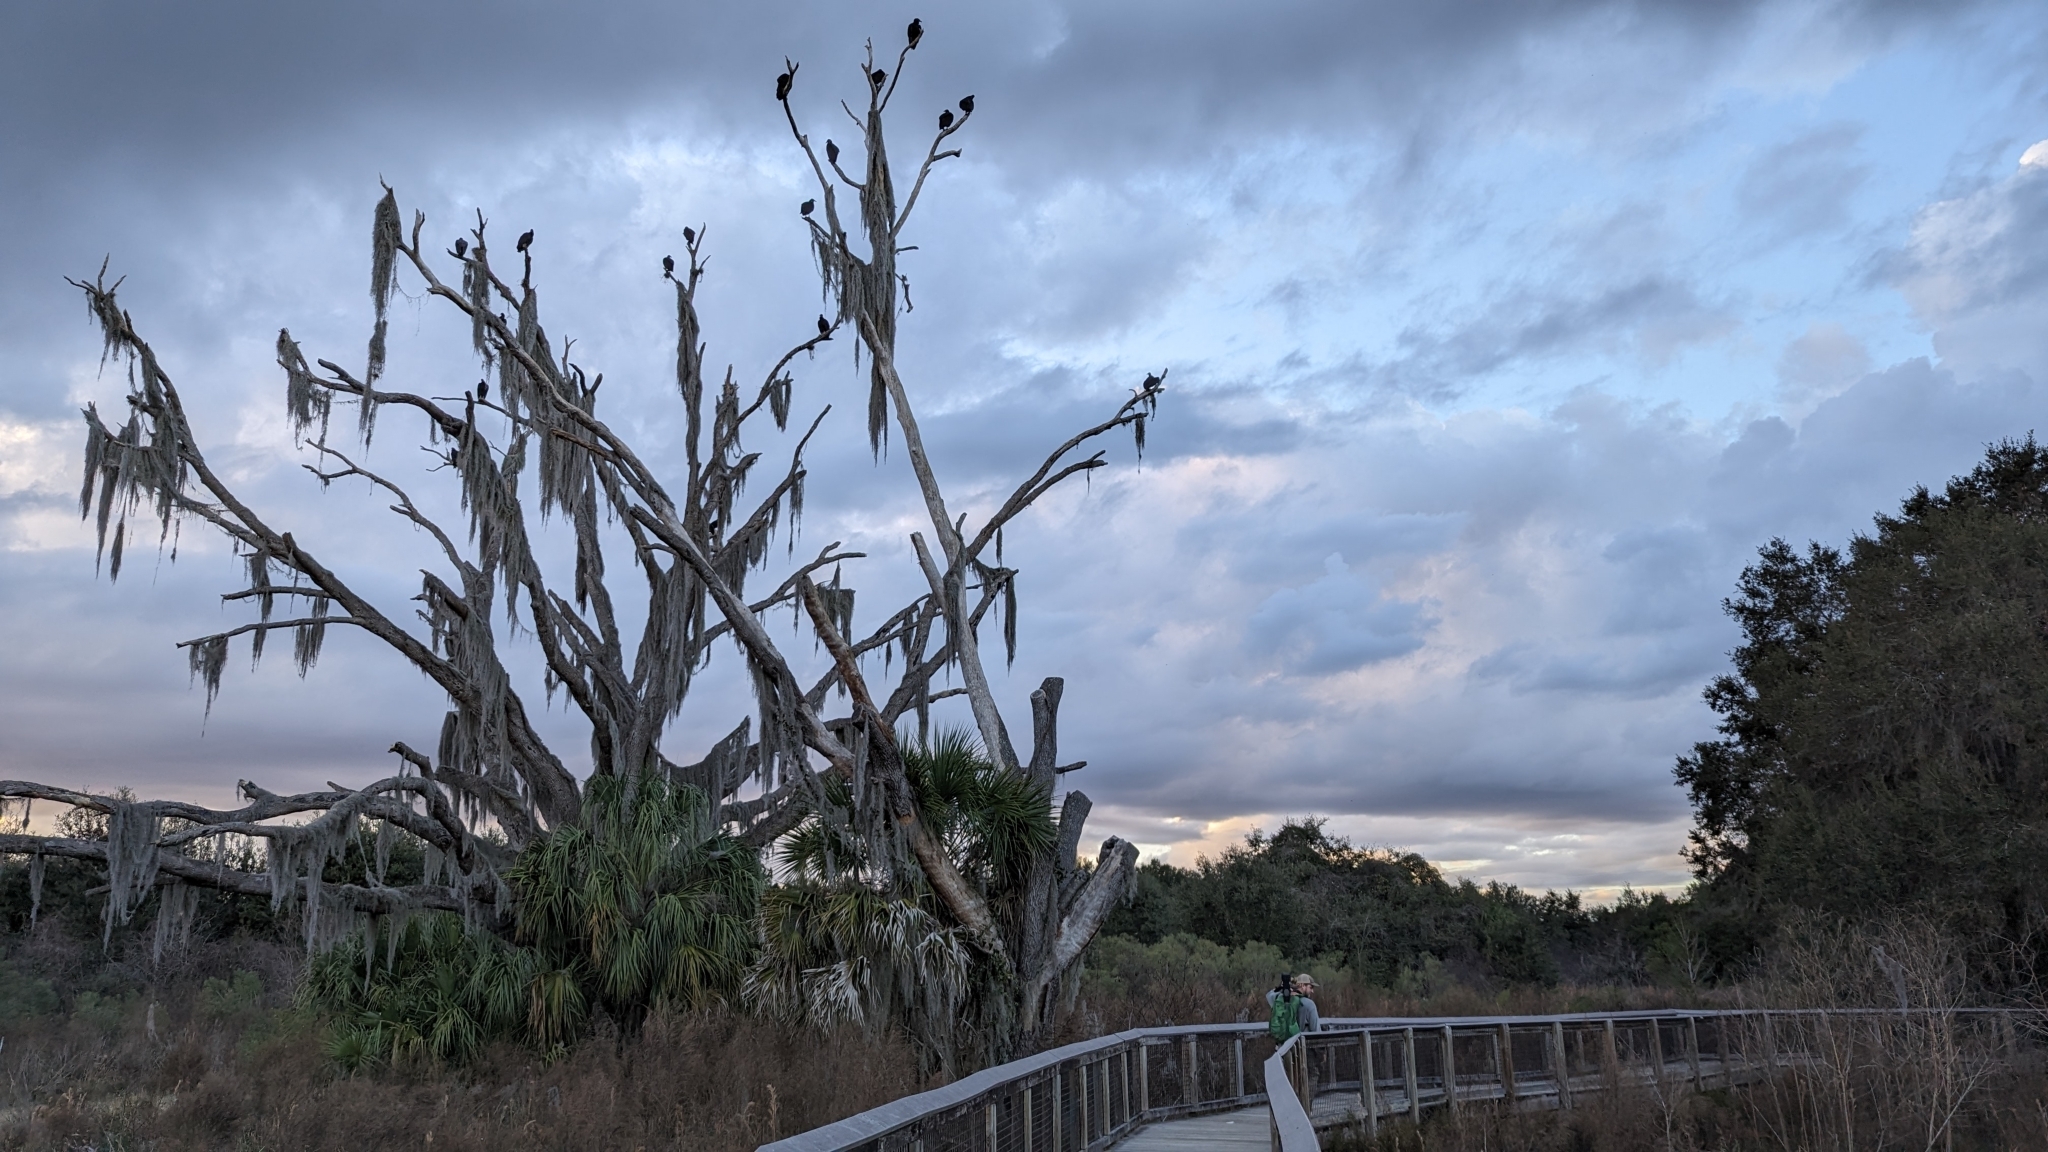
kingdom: Plantae
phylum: Tracheophyta
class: Liliopsida
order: Poales
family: Bromeliaceae
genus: Tillandsia
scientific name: Tillandsia usneoides
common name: Spanish moss
